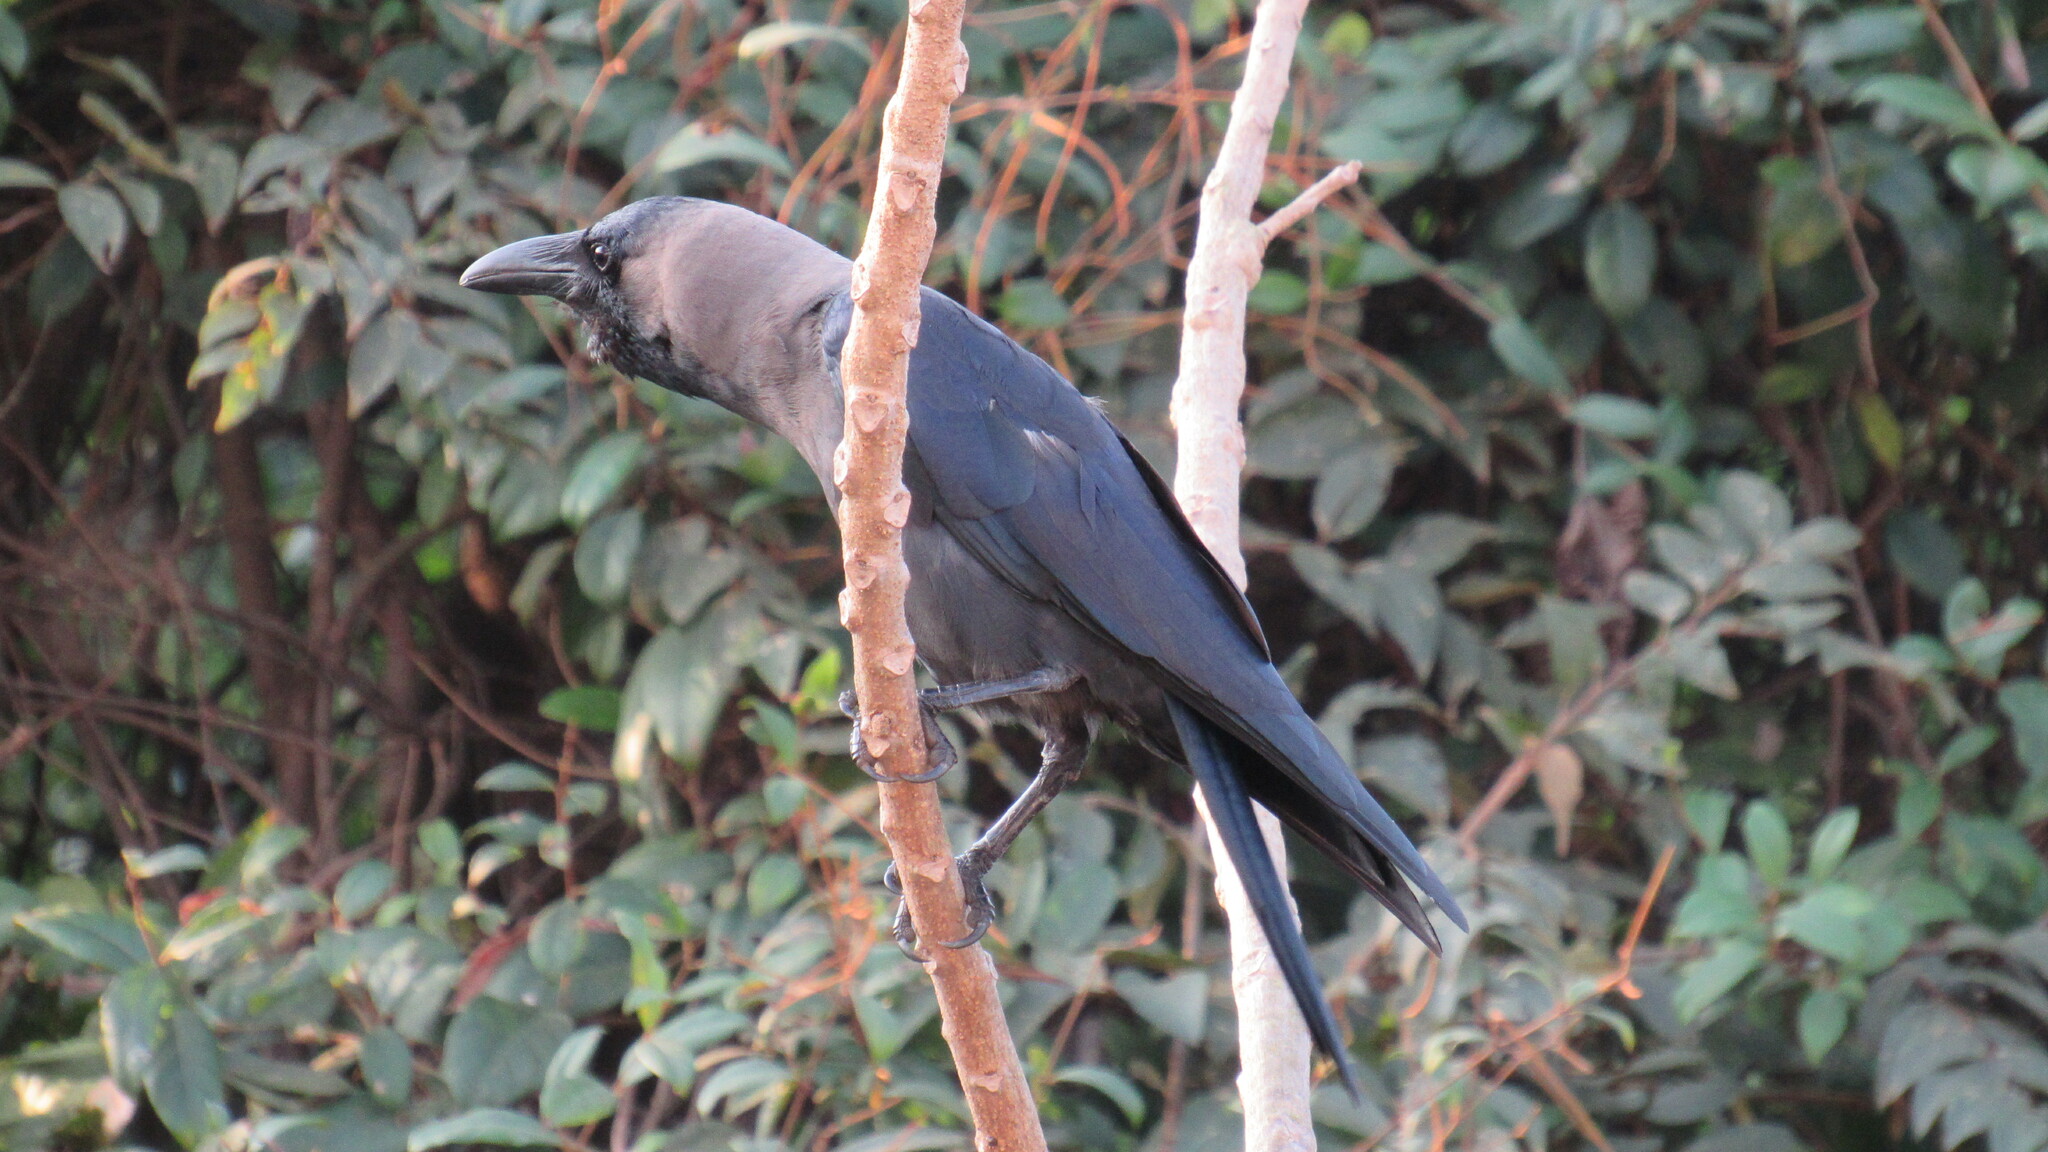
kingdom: Animalia
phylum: Chordata
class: Aves
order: Passeriformes
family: Corvidae
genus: Corvus
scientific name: Corvus splendens
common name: House crow
